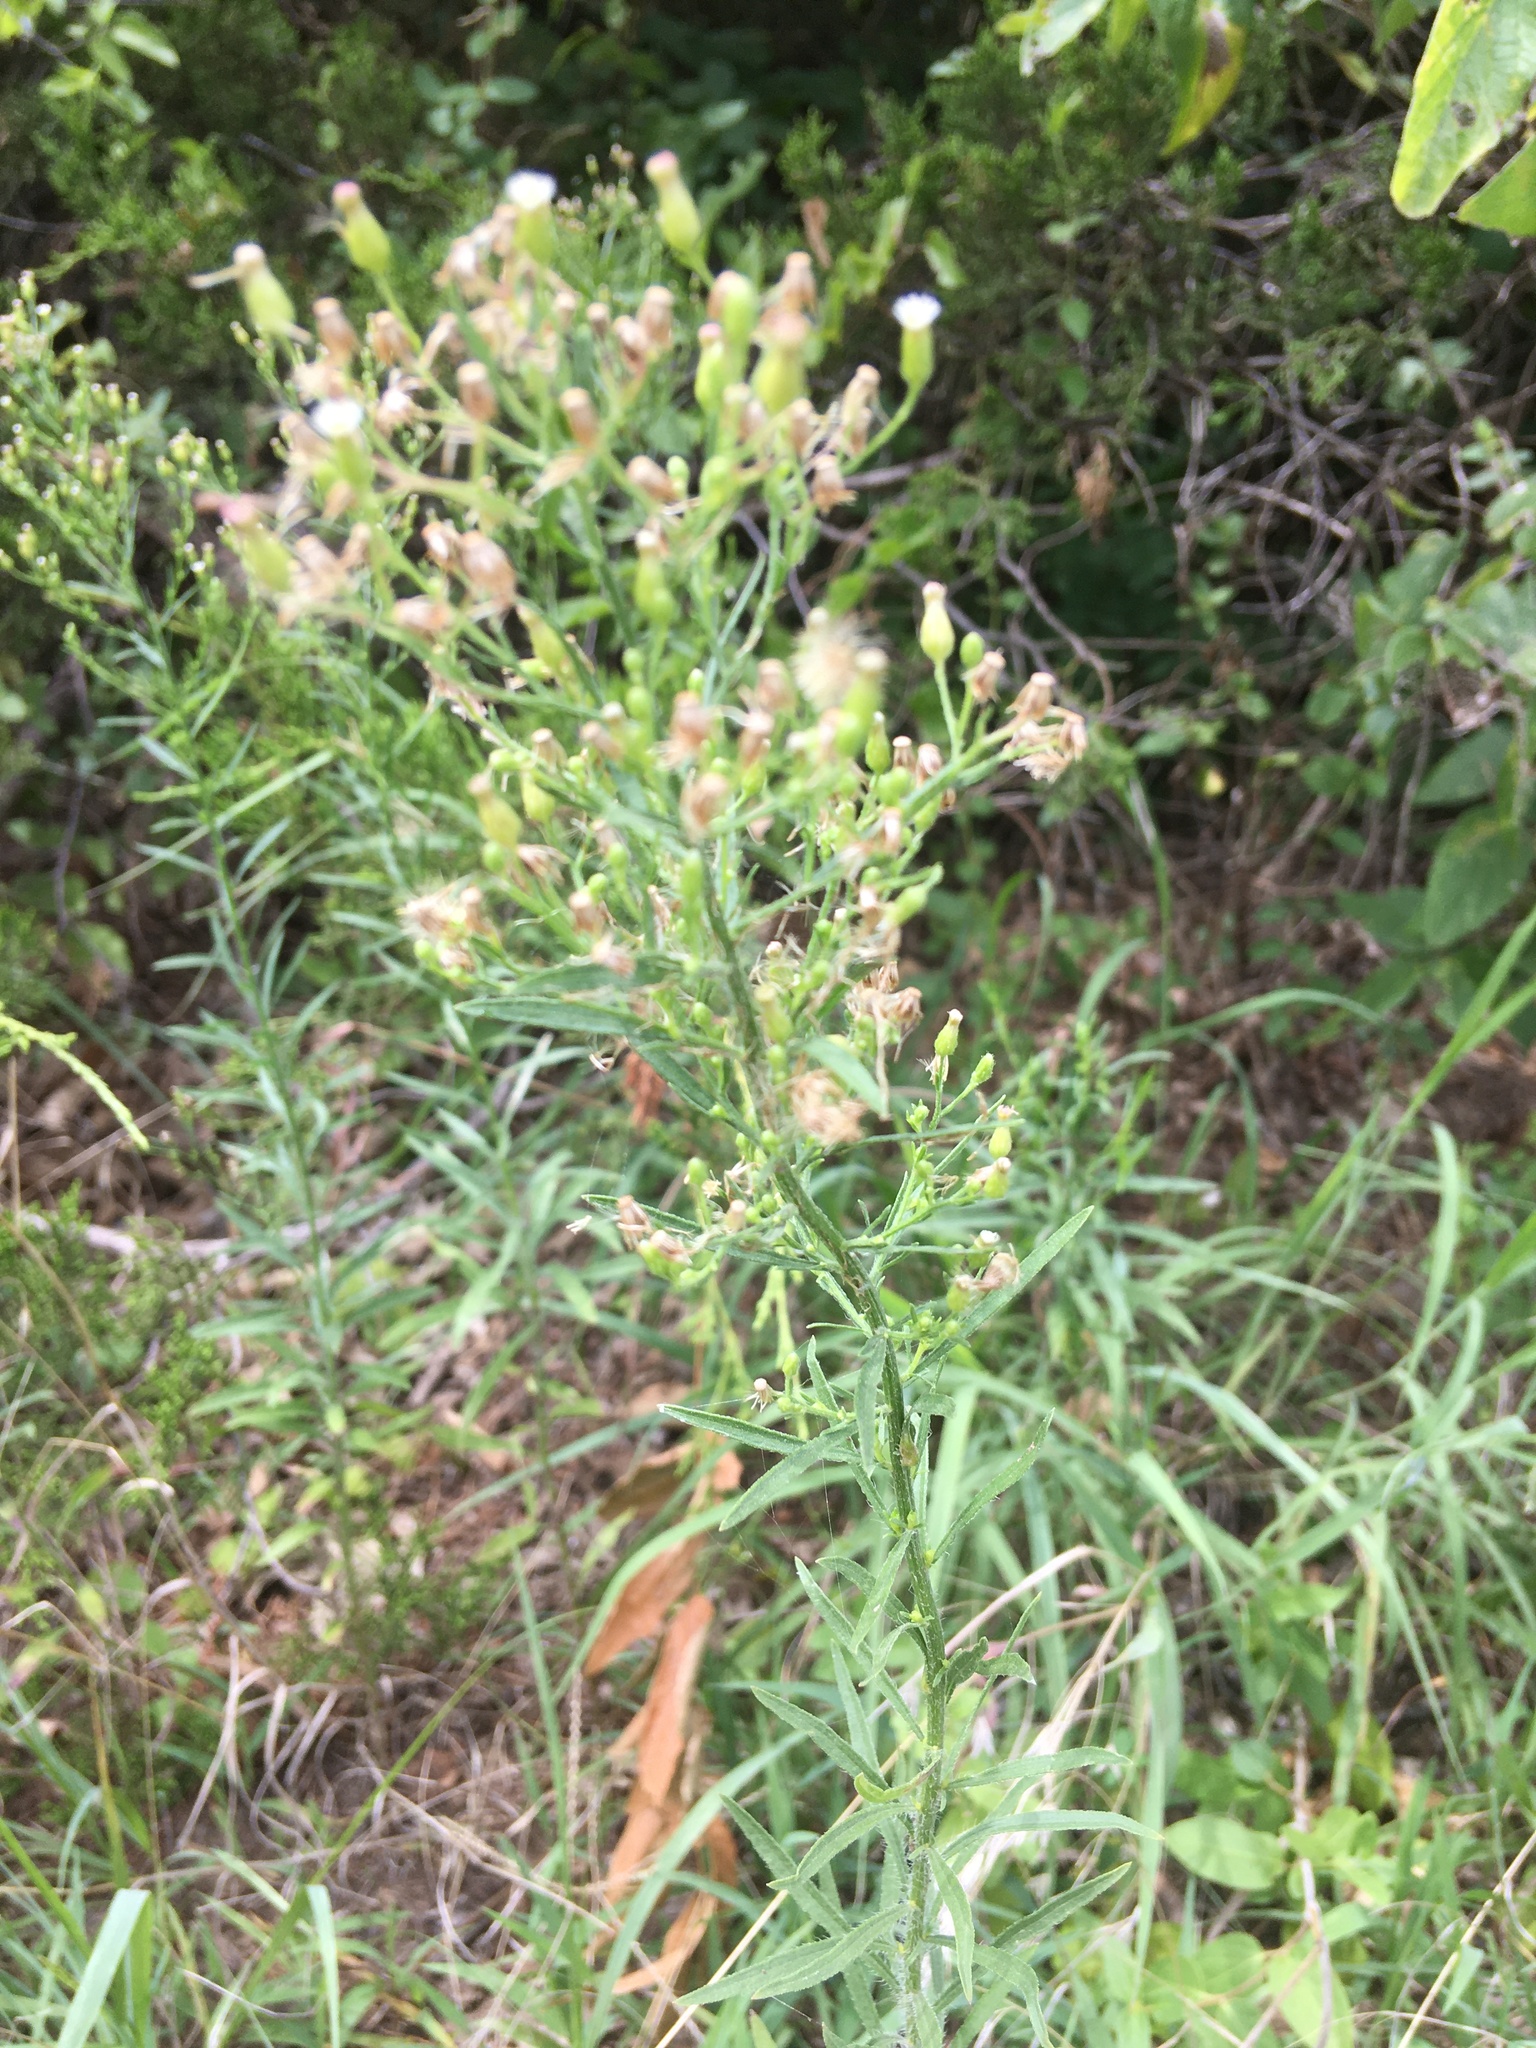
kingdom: Plantae
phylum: Tracheophyta
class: Magnoliopsida
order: Asterales
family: Asteraceae
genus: Erigeron
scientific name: Erigeron canadensis
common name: Canadian fleabane
